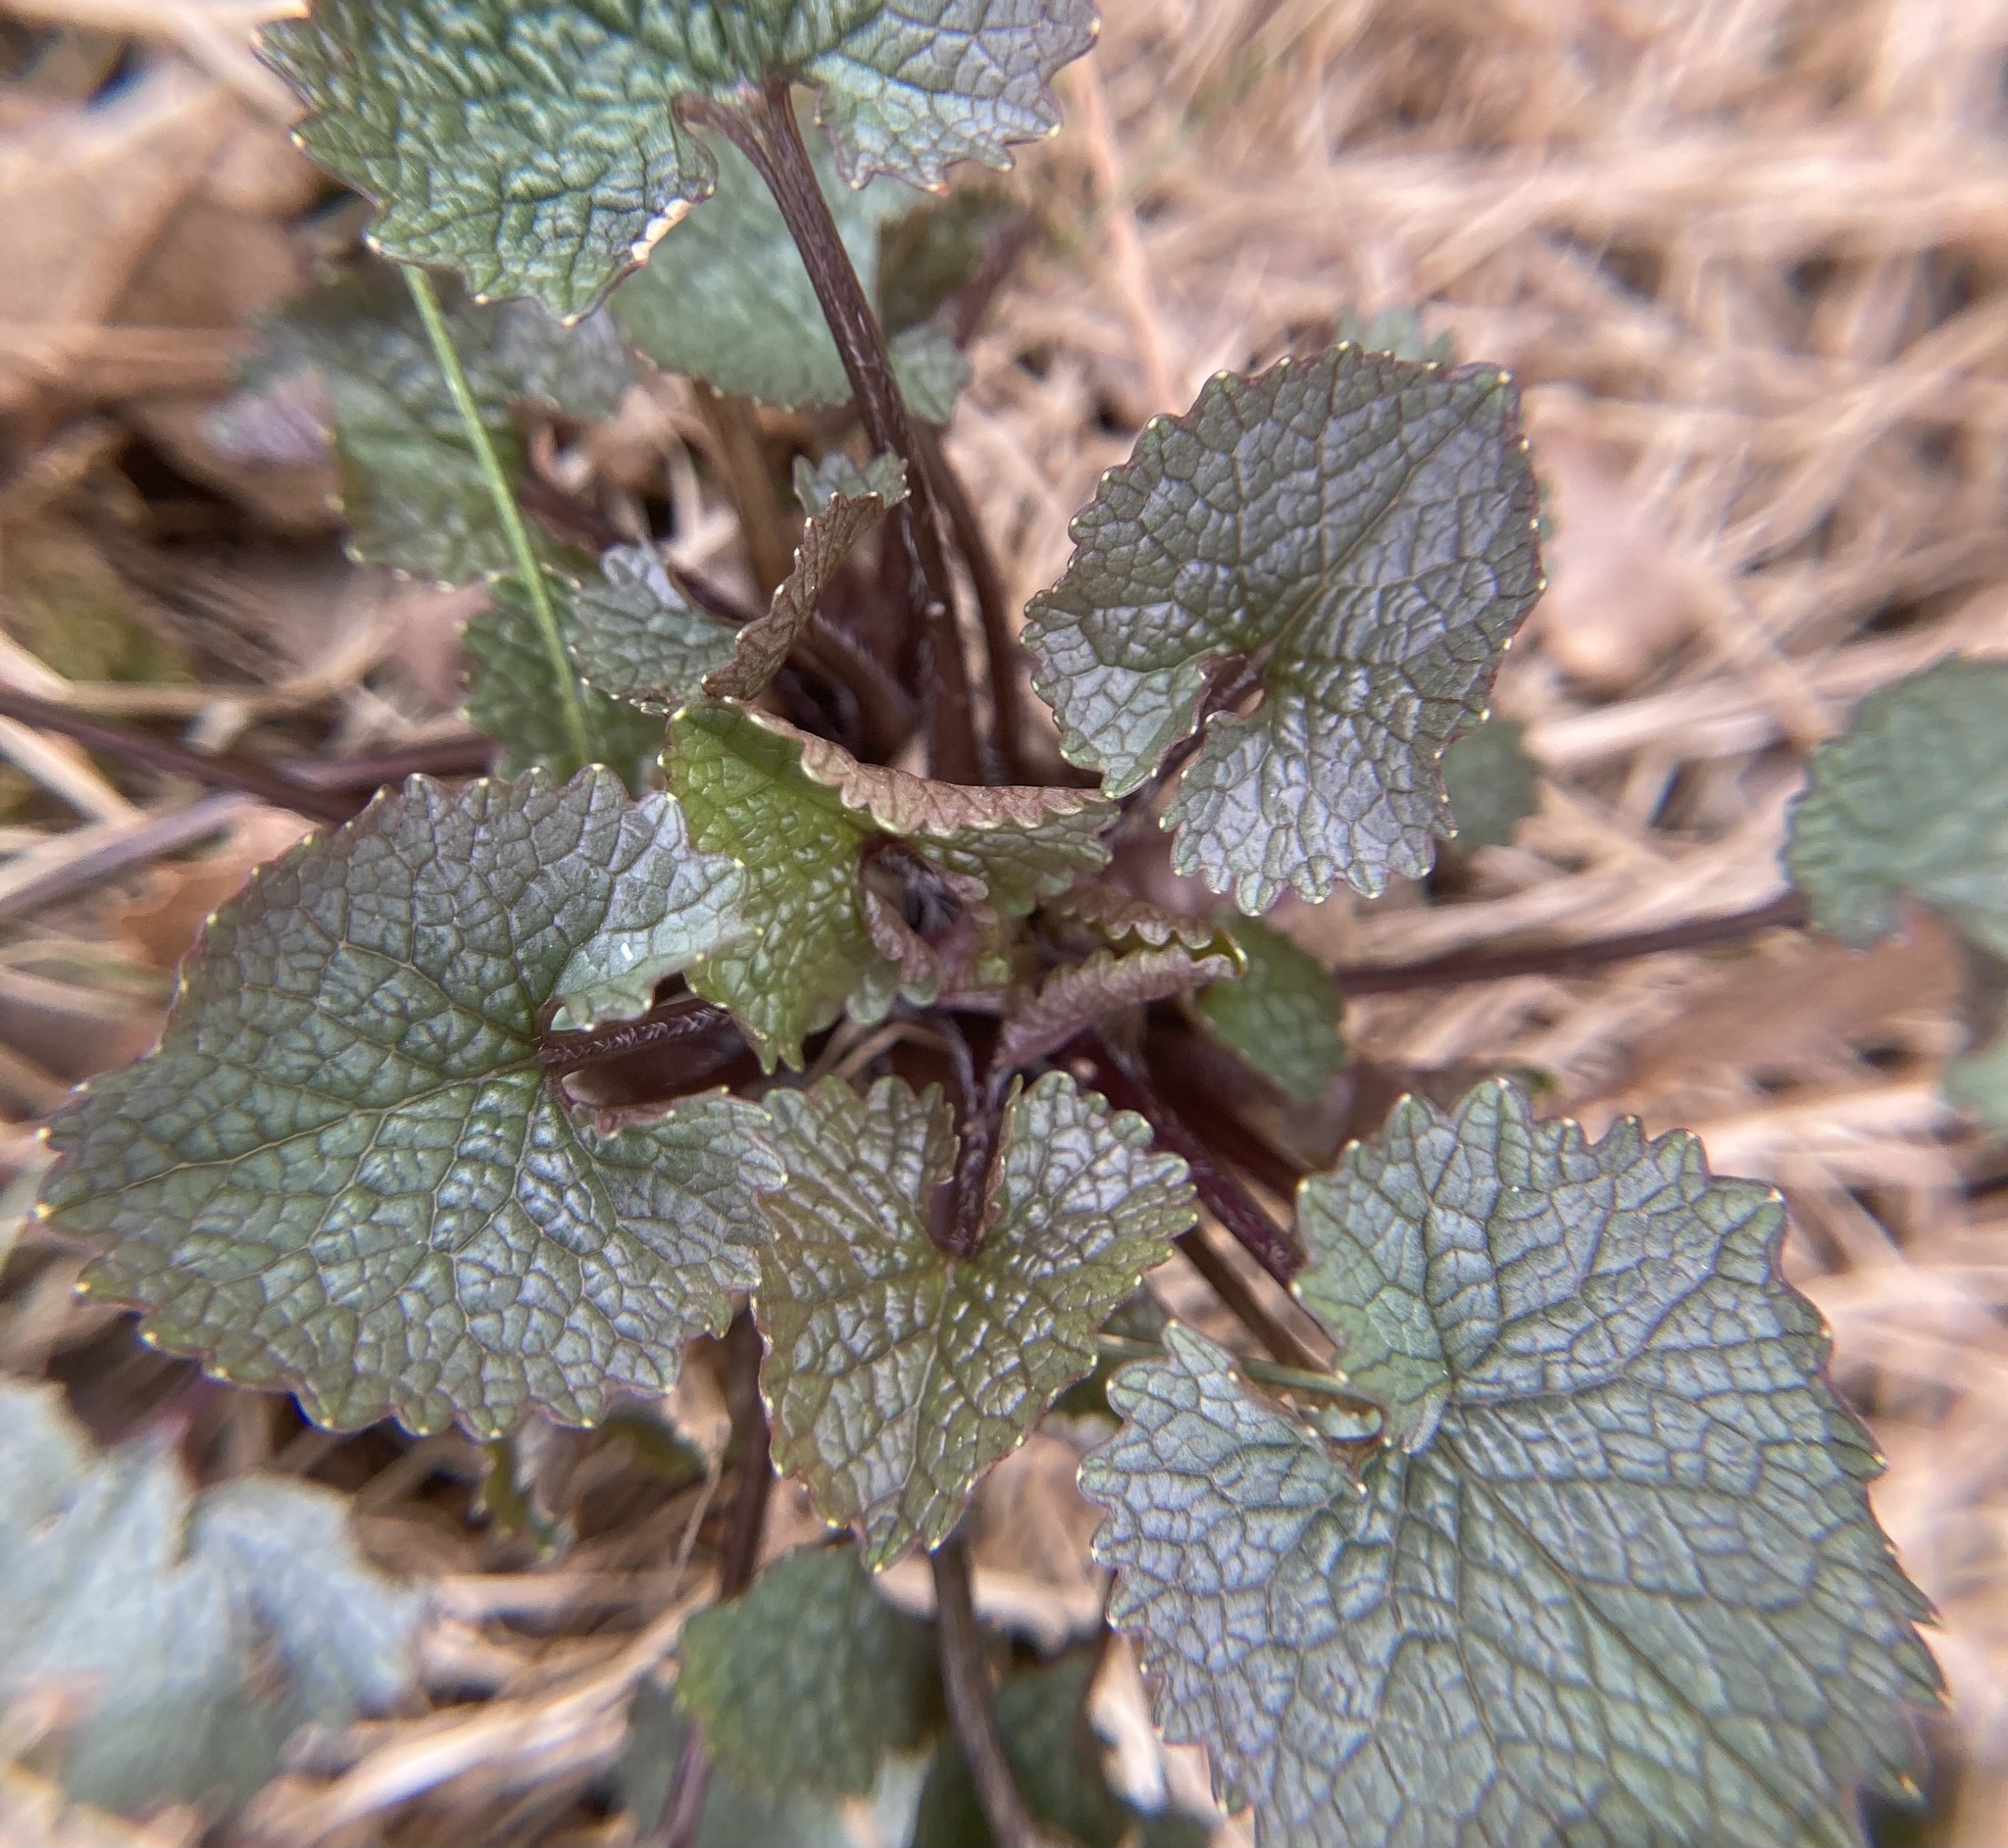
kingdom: Plantae
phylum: Tracheophyta
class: Magnoliopsida
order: Brassicales
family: Brassicaceae
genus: Alliaria
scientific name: Alliaria petiolata
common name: Garlic mustard
